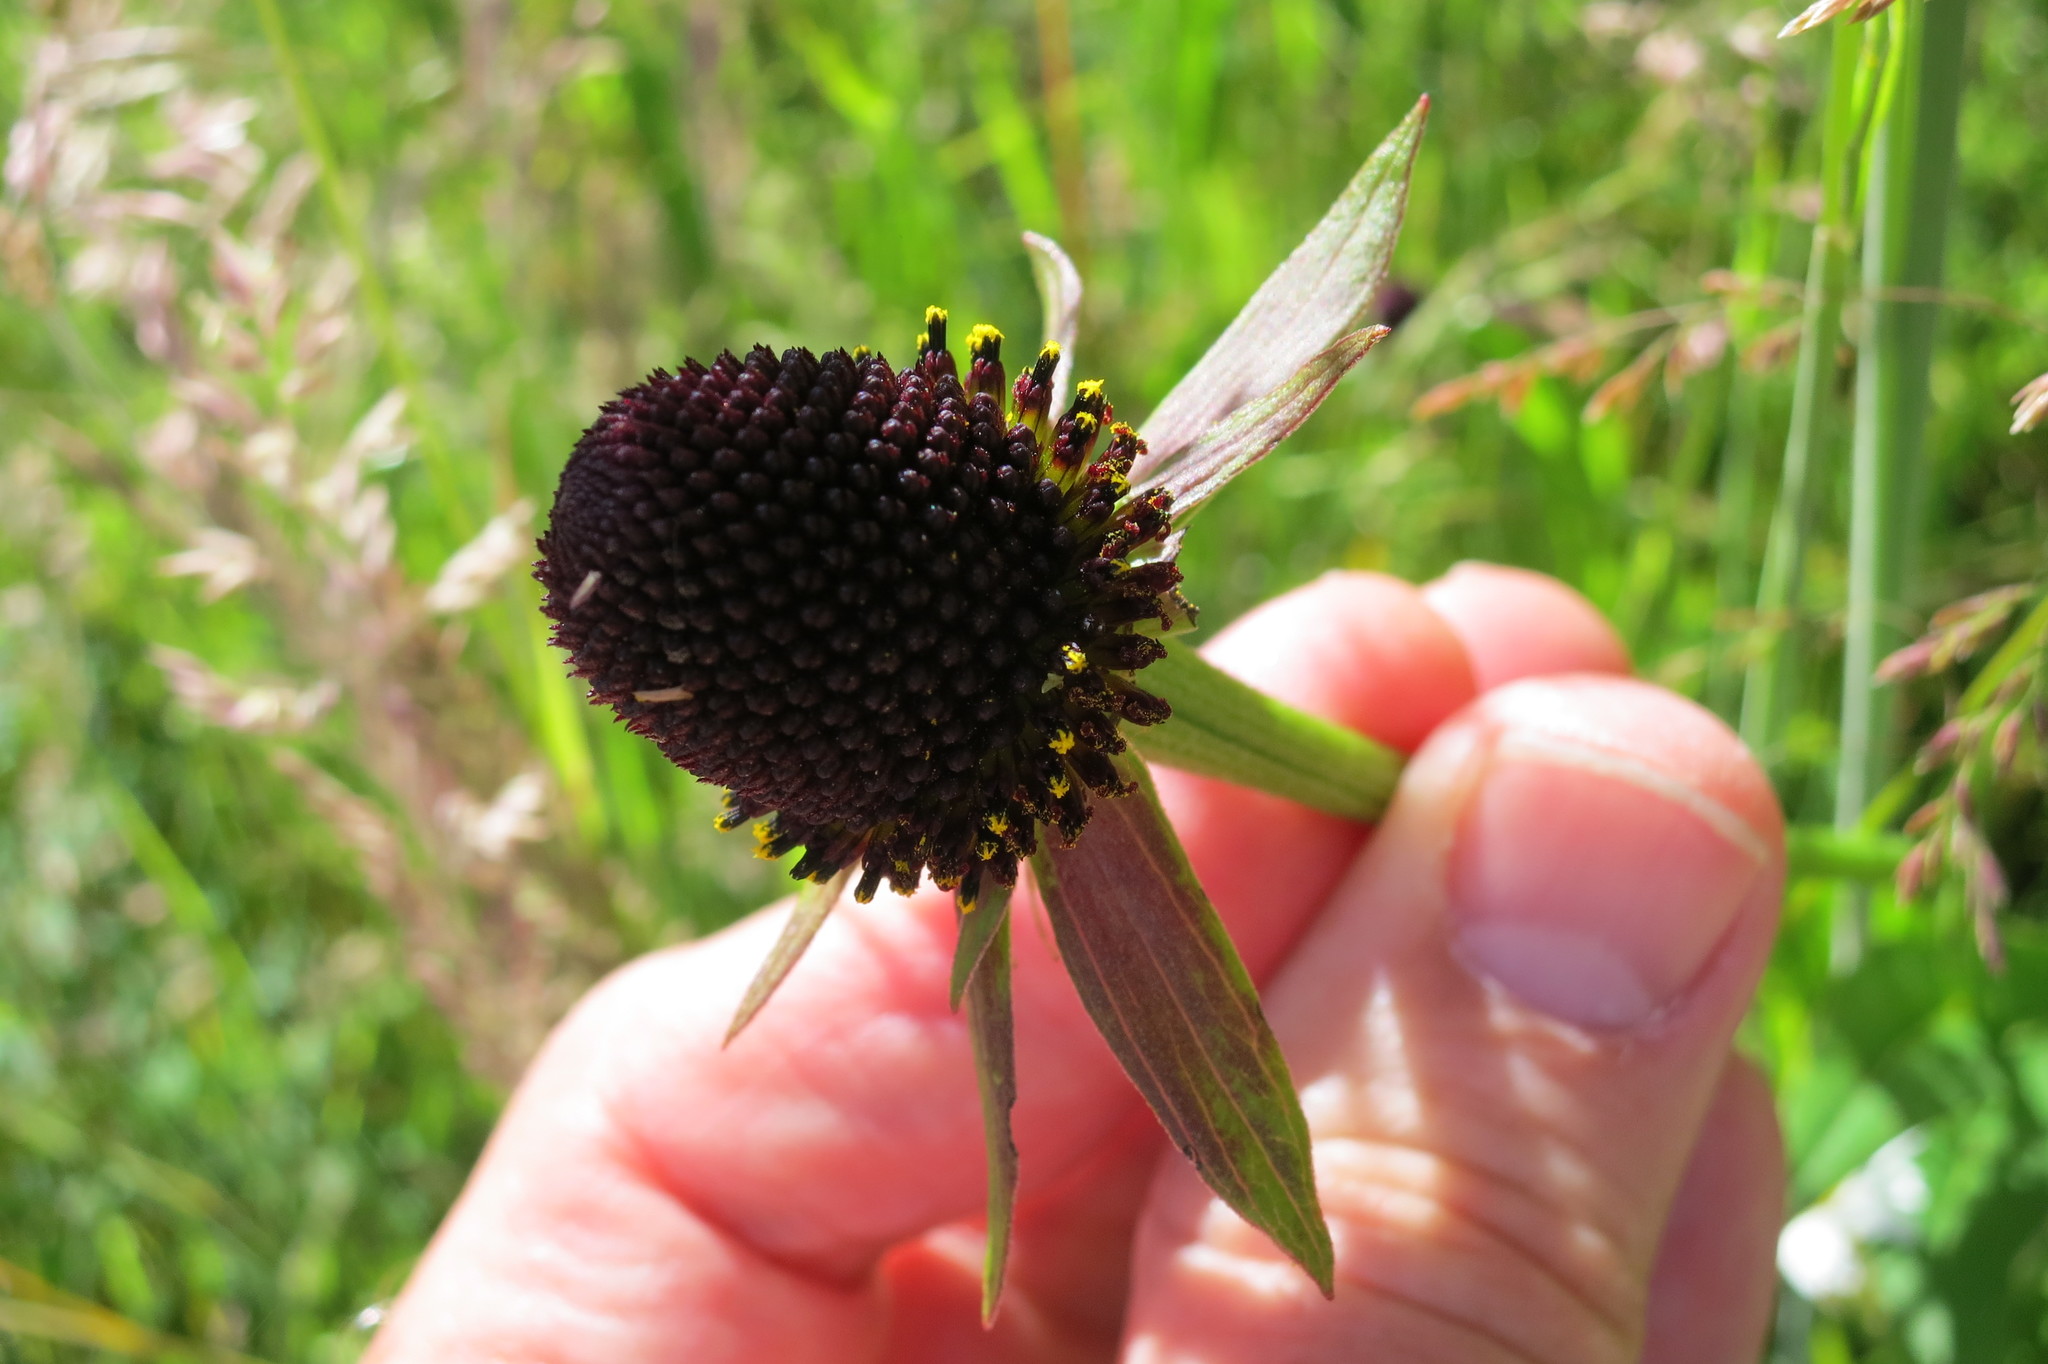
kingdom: Plantae
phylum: Tracheophyta
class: Magnoliopsida
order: Asterales
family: Asteraceae
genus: Rudbeckia
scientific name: Rudbeckia occidentalis
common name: Western coneflower
